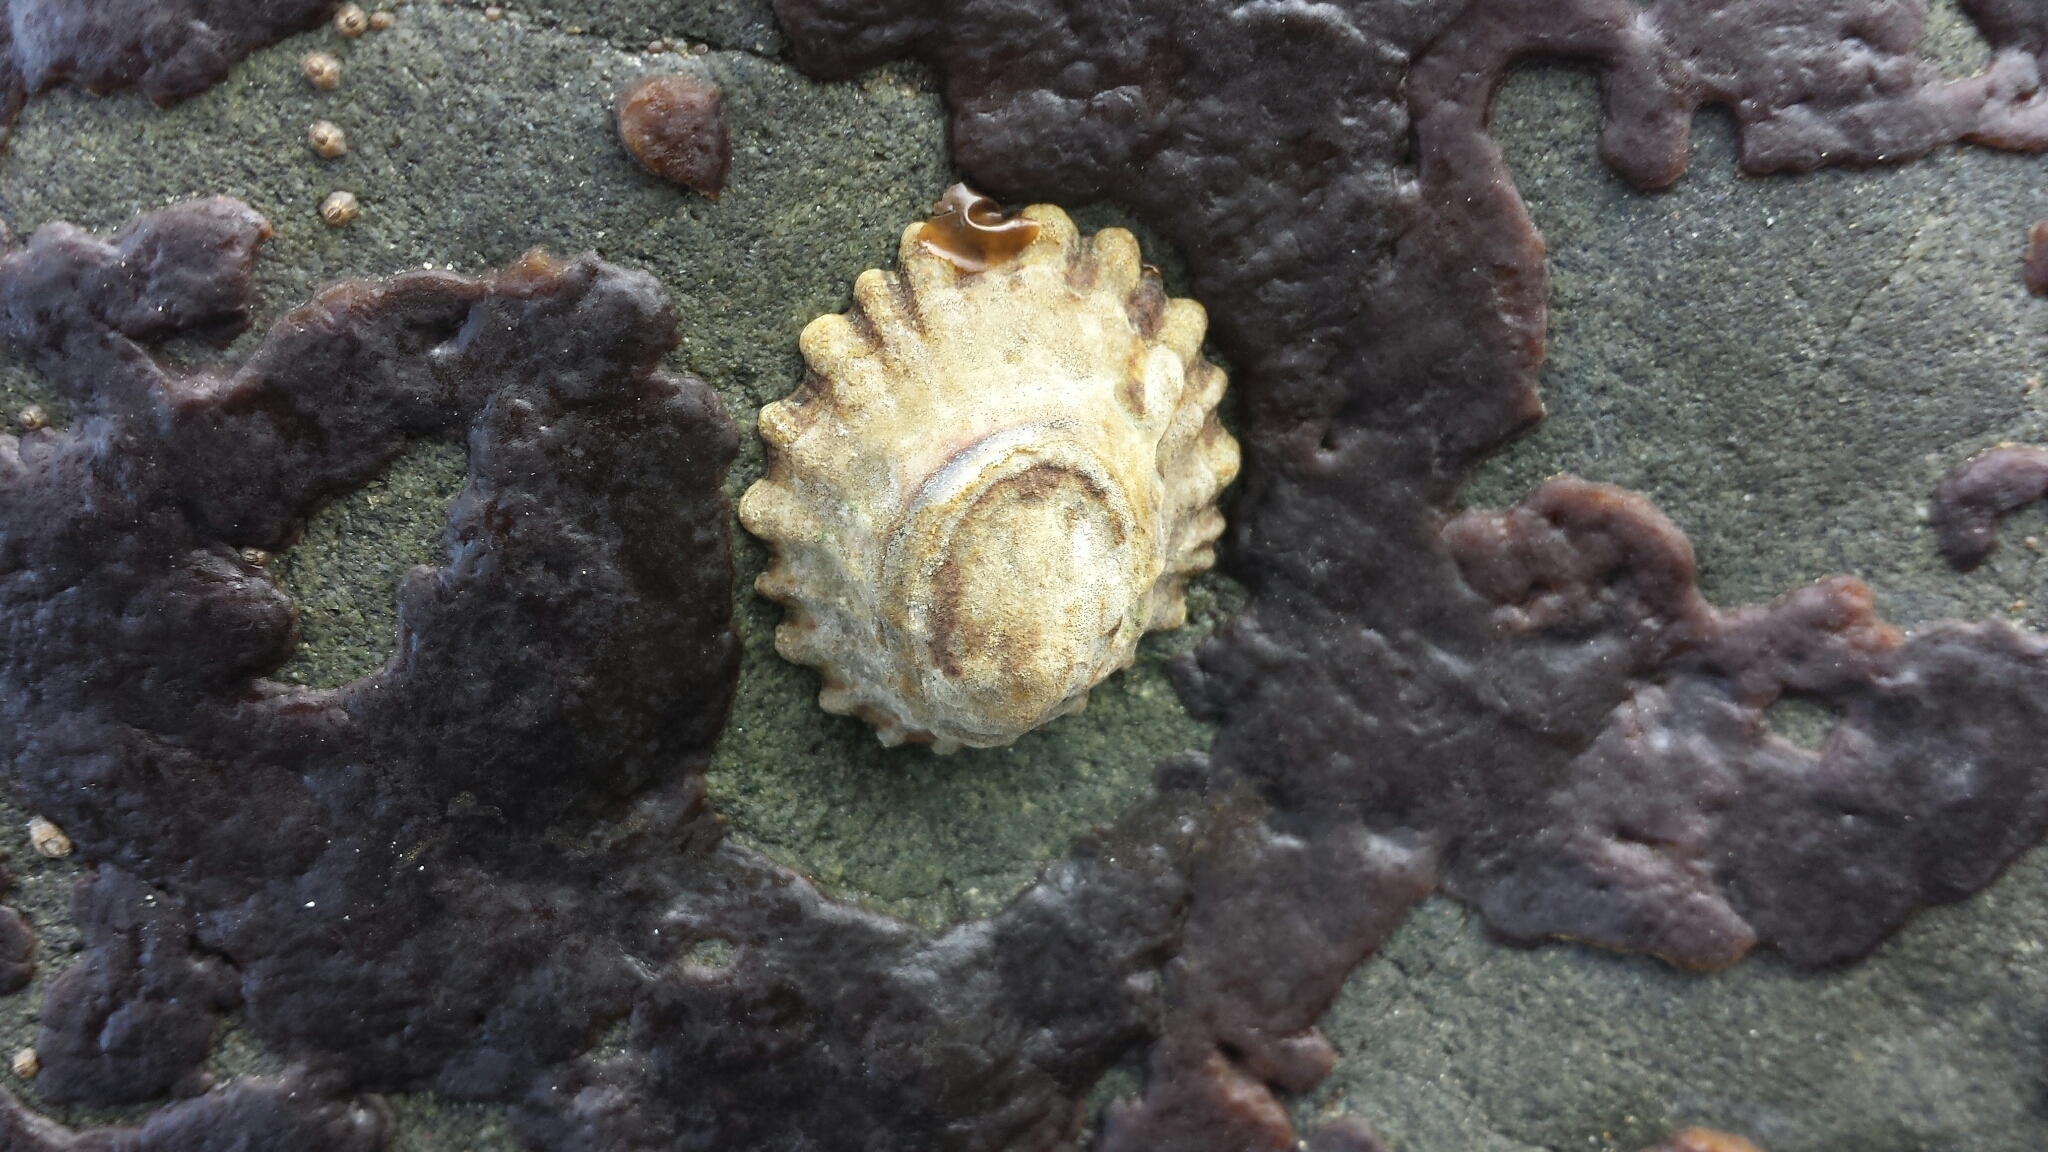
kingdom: Animalia
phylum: Mollusca
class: Gastropoda
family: Lottiidae
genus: Lottia
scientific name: Lottia scabra
